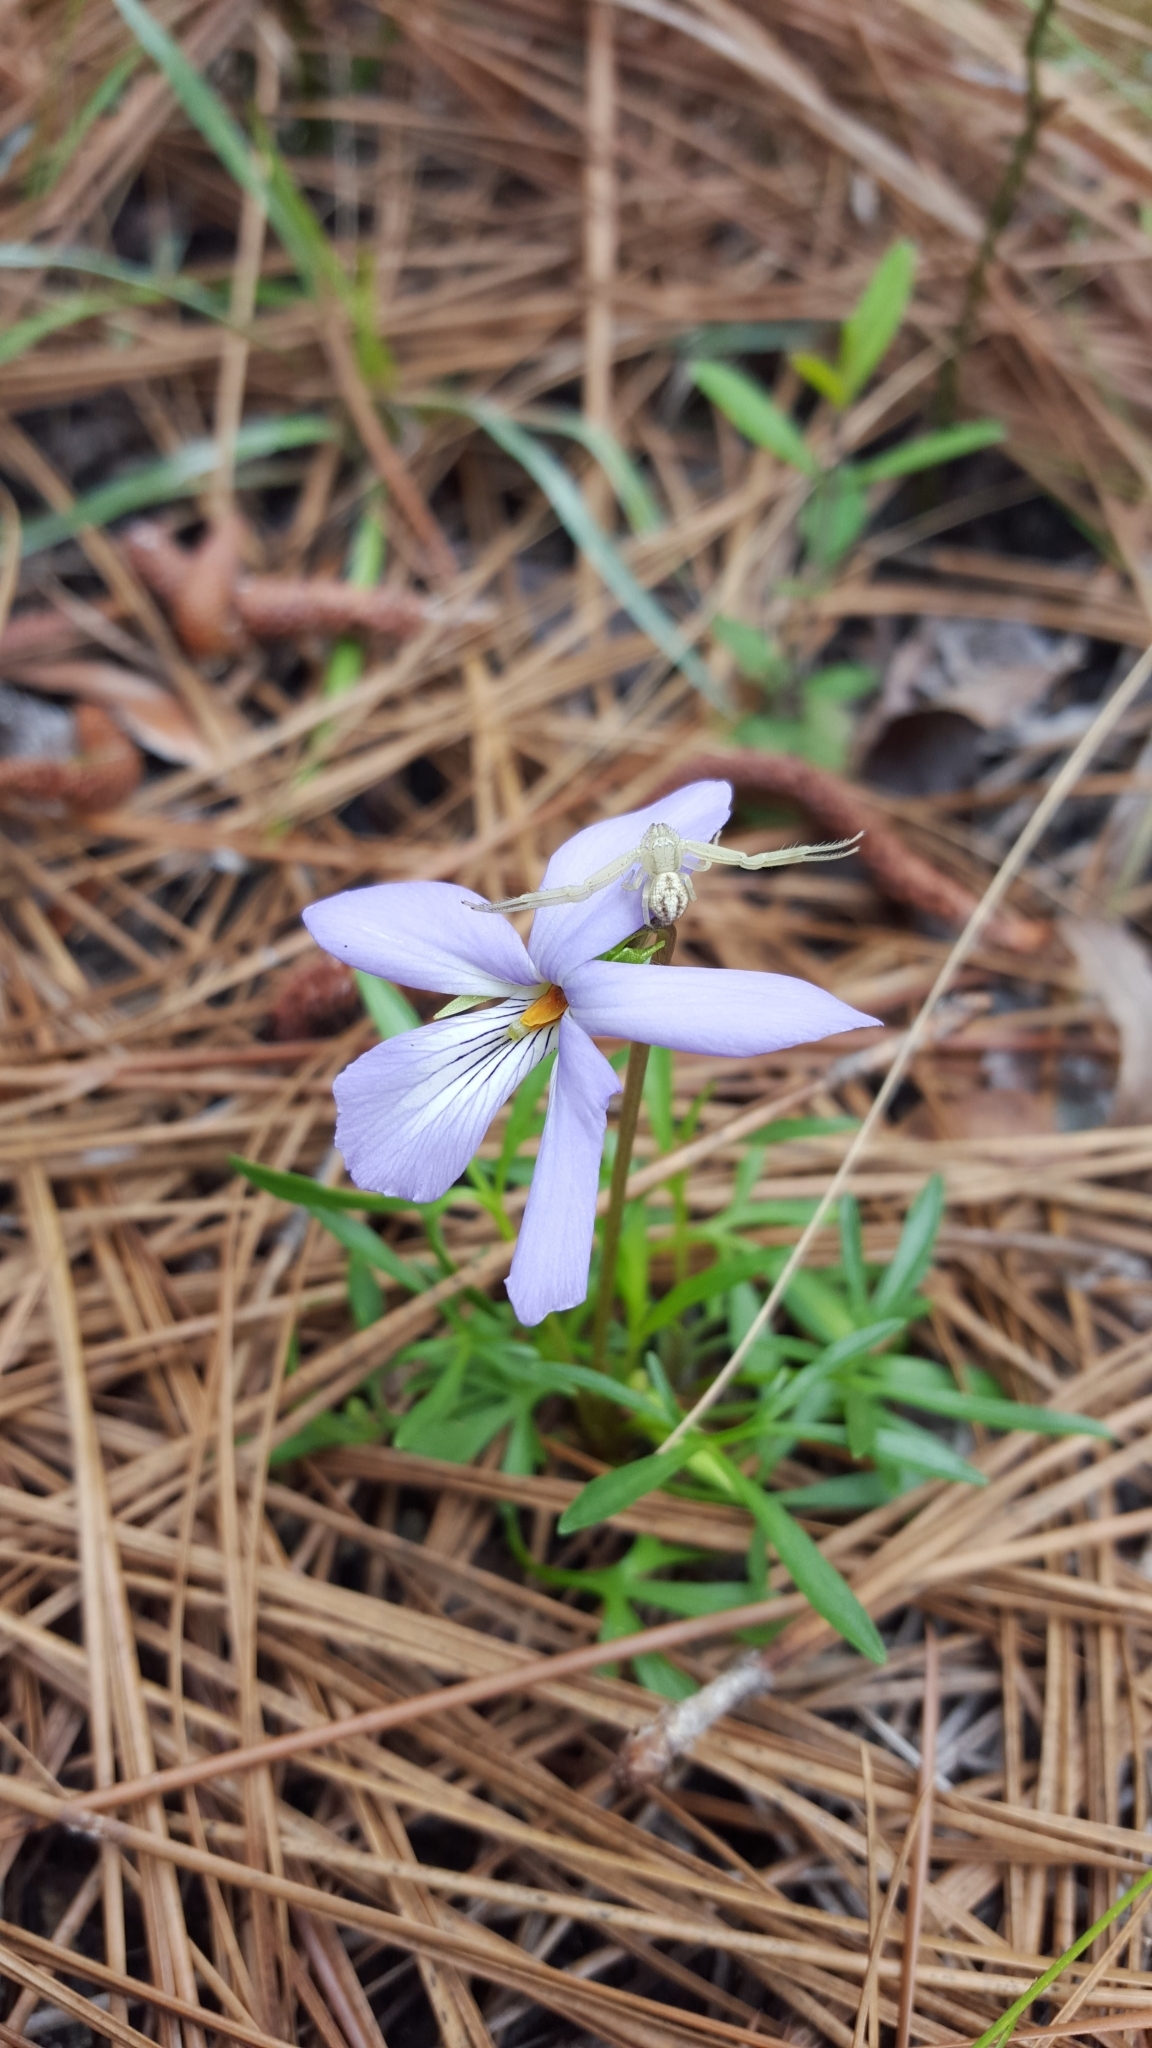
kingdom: Plantae
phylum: Tracheophyta
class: Magnoliopsida
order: Malpighiales
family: Violaceae
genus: Viola
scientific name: Viola pedata
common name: Pansy violet
